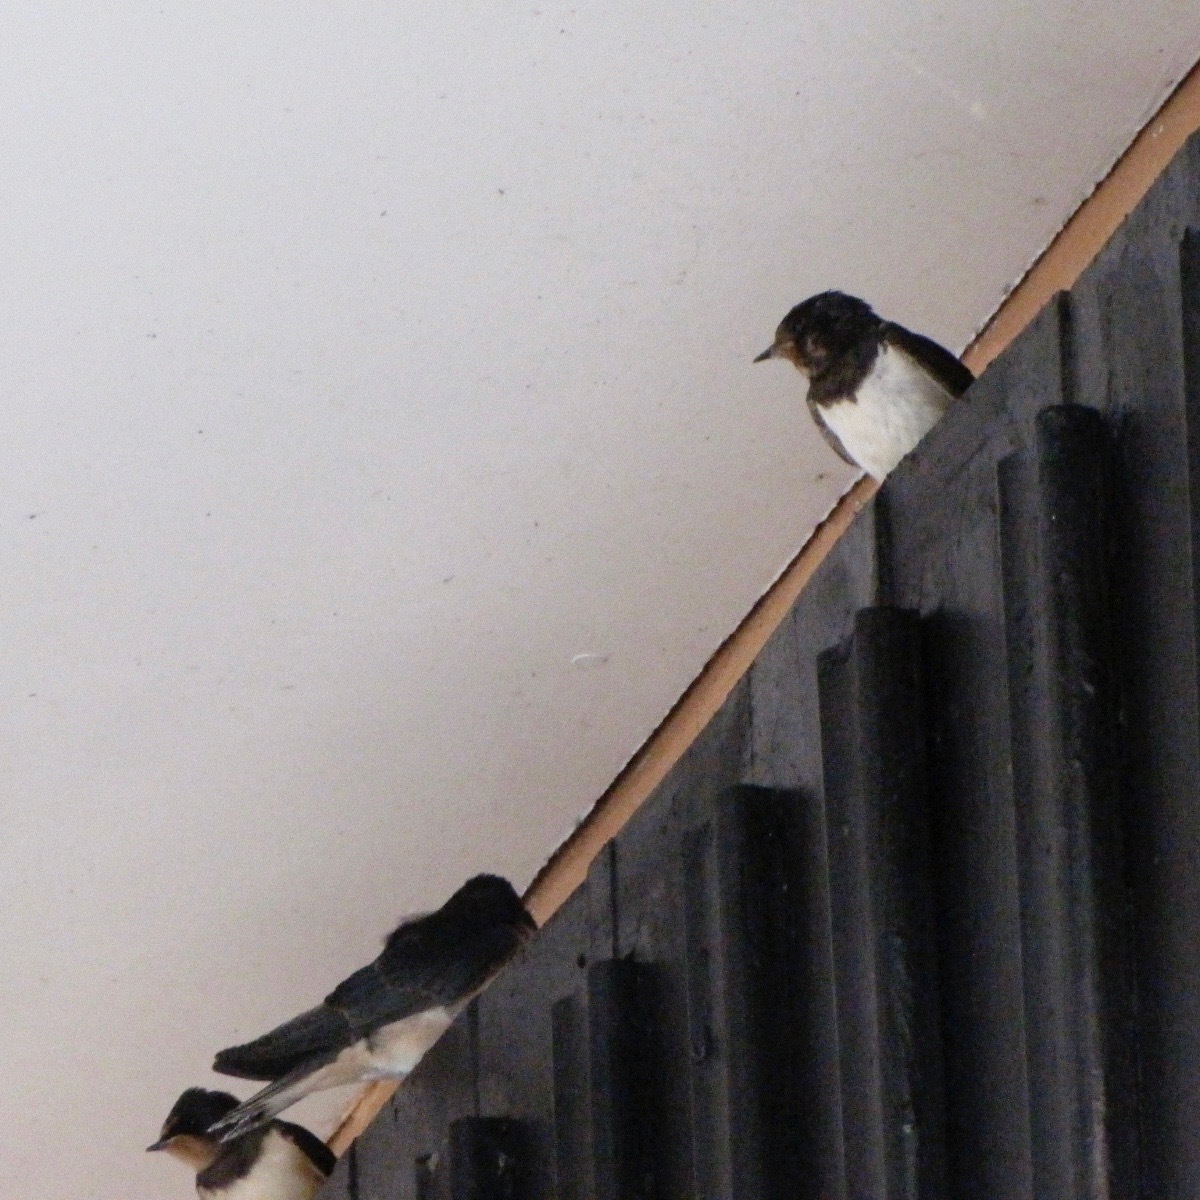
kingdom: Animalia
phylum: Chordata
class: Aves
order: Passeriformes
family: Hirundinidae
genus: Hirundo
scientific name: Hirundo rustica
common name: Barn swallow
